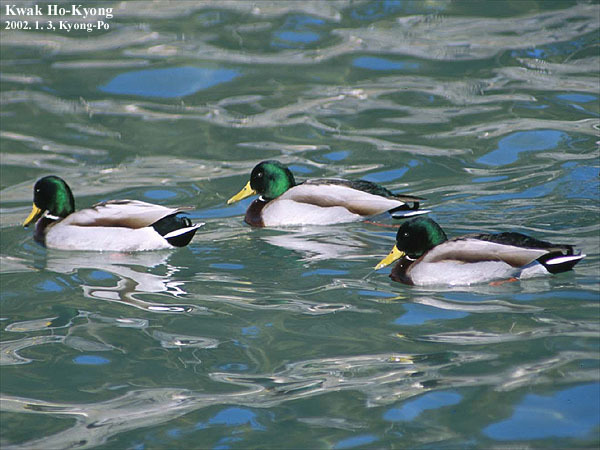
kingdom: Animalia
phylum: Chordata
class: Aves
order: Anseriformes
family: Anatidae
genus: Anas
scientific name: Anas platyrhynchos
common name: Mallard
